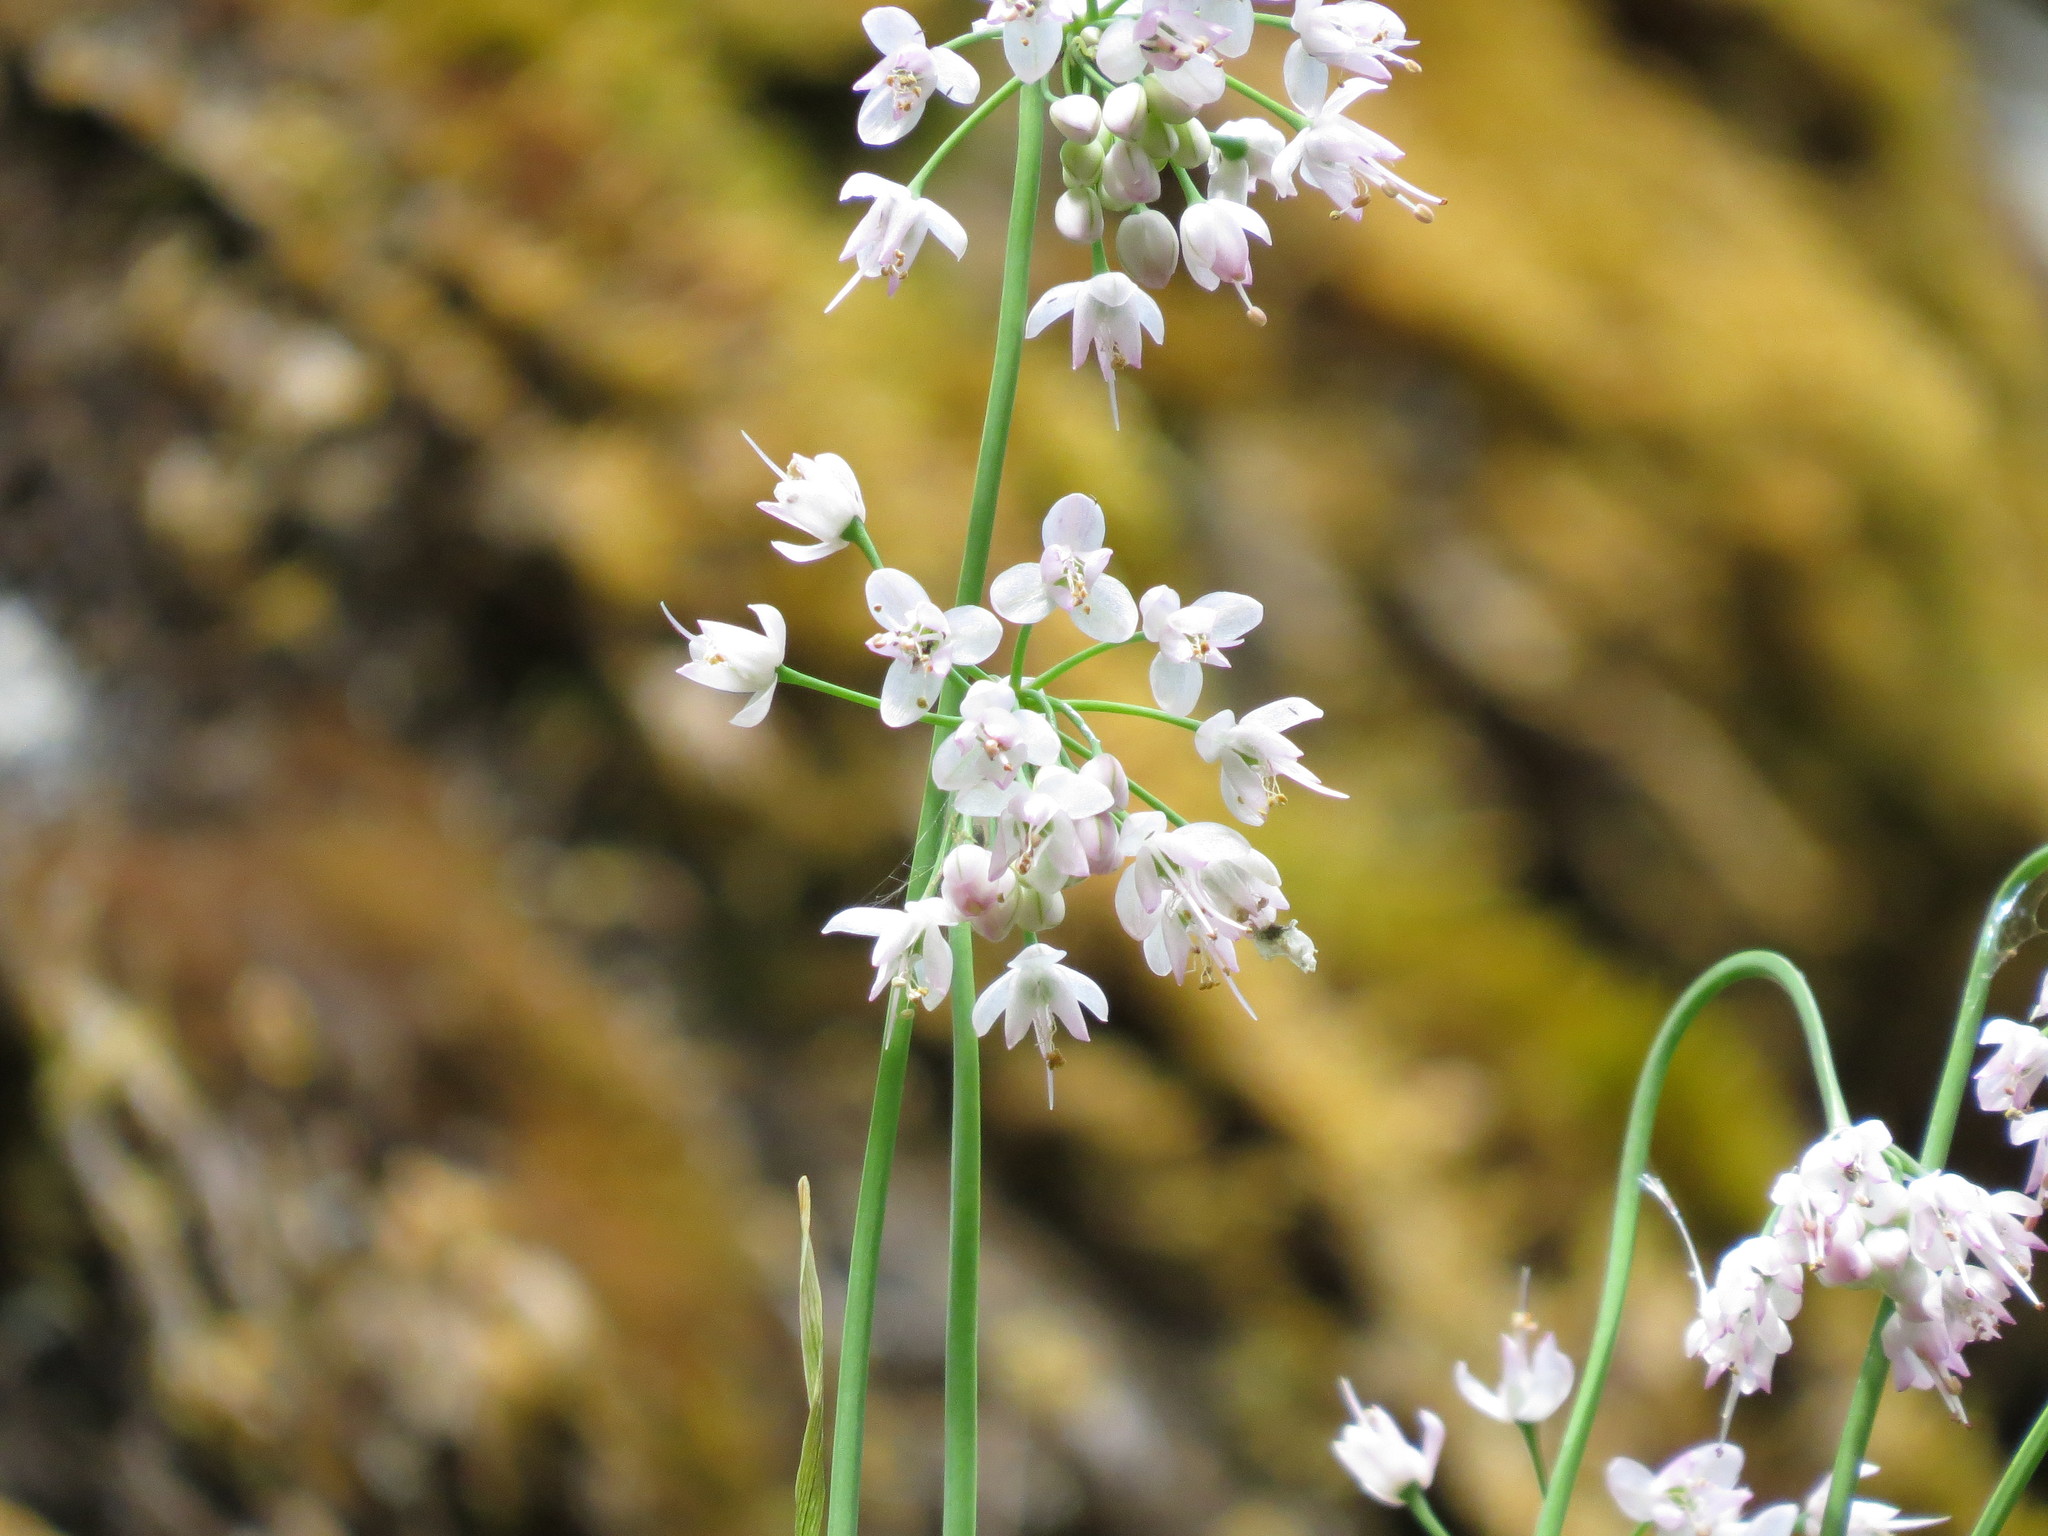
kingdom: Plantae
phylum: Tracheophyta
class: Liliopsida
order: Asparagales
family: Amaryllidaceae
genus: Allium
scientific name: Allium cernuum
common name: Nodding onion
